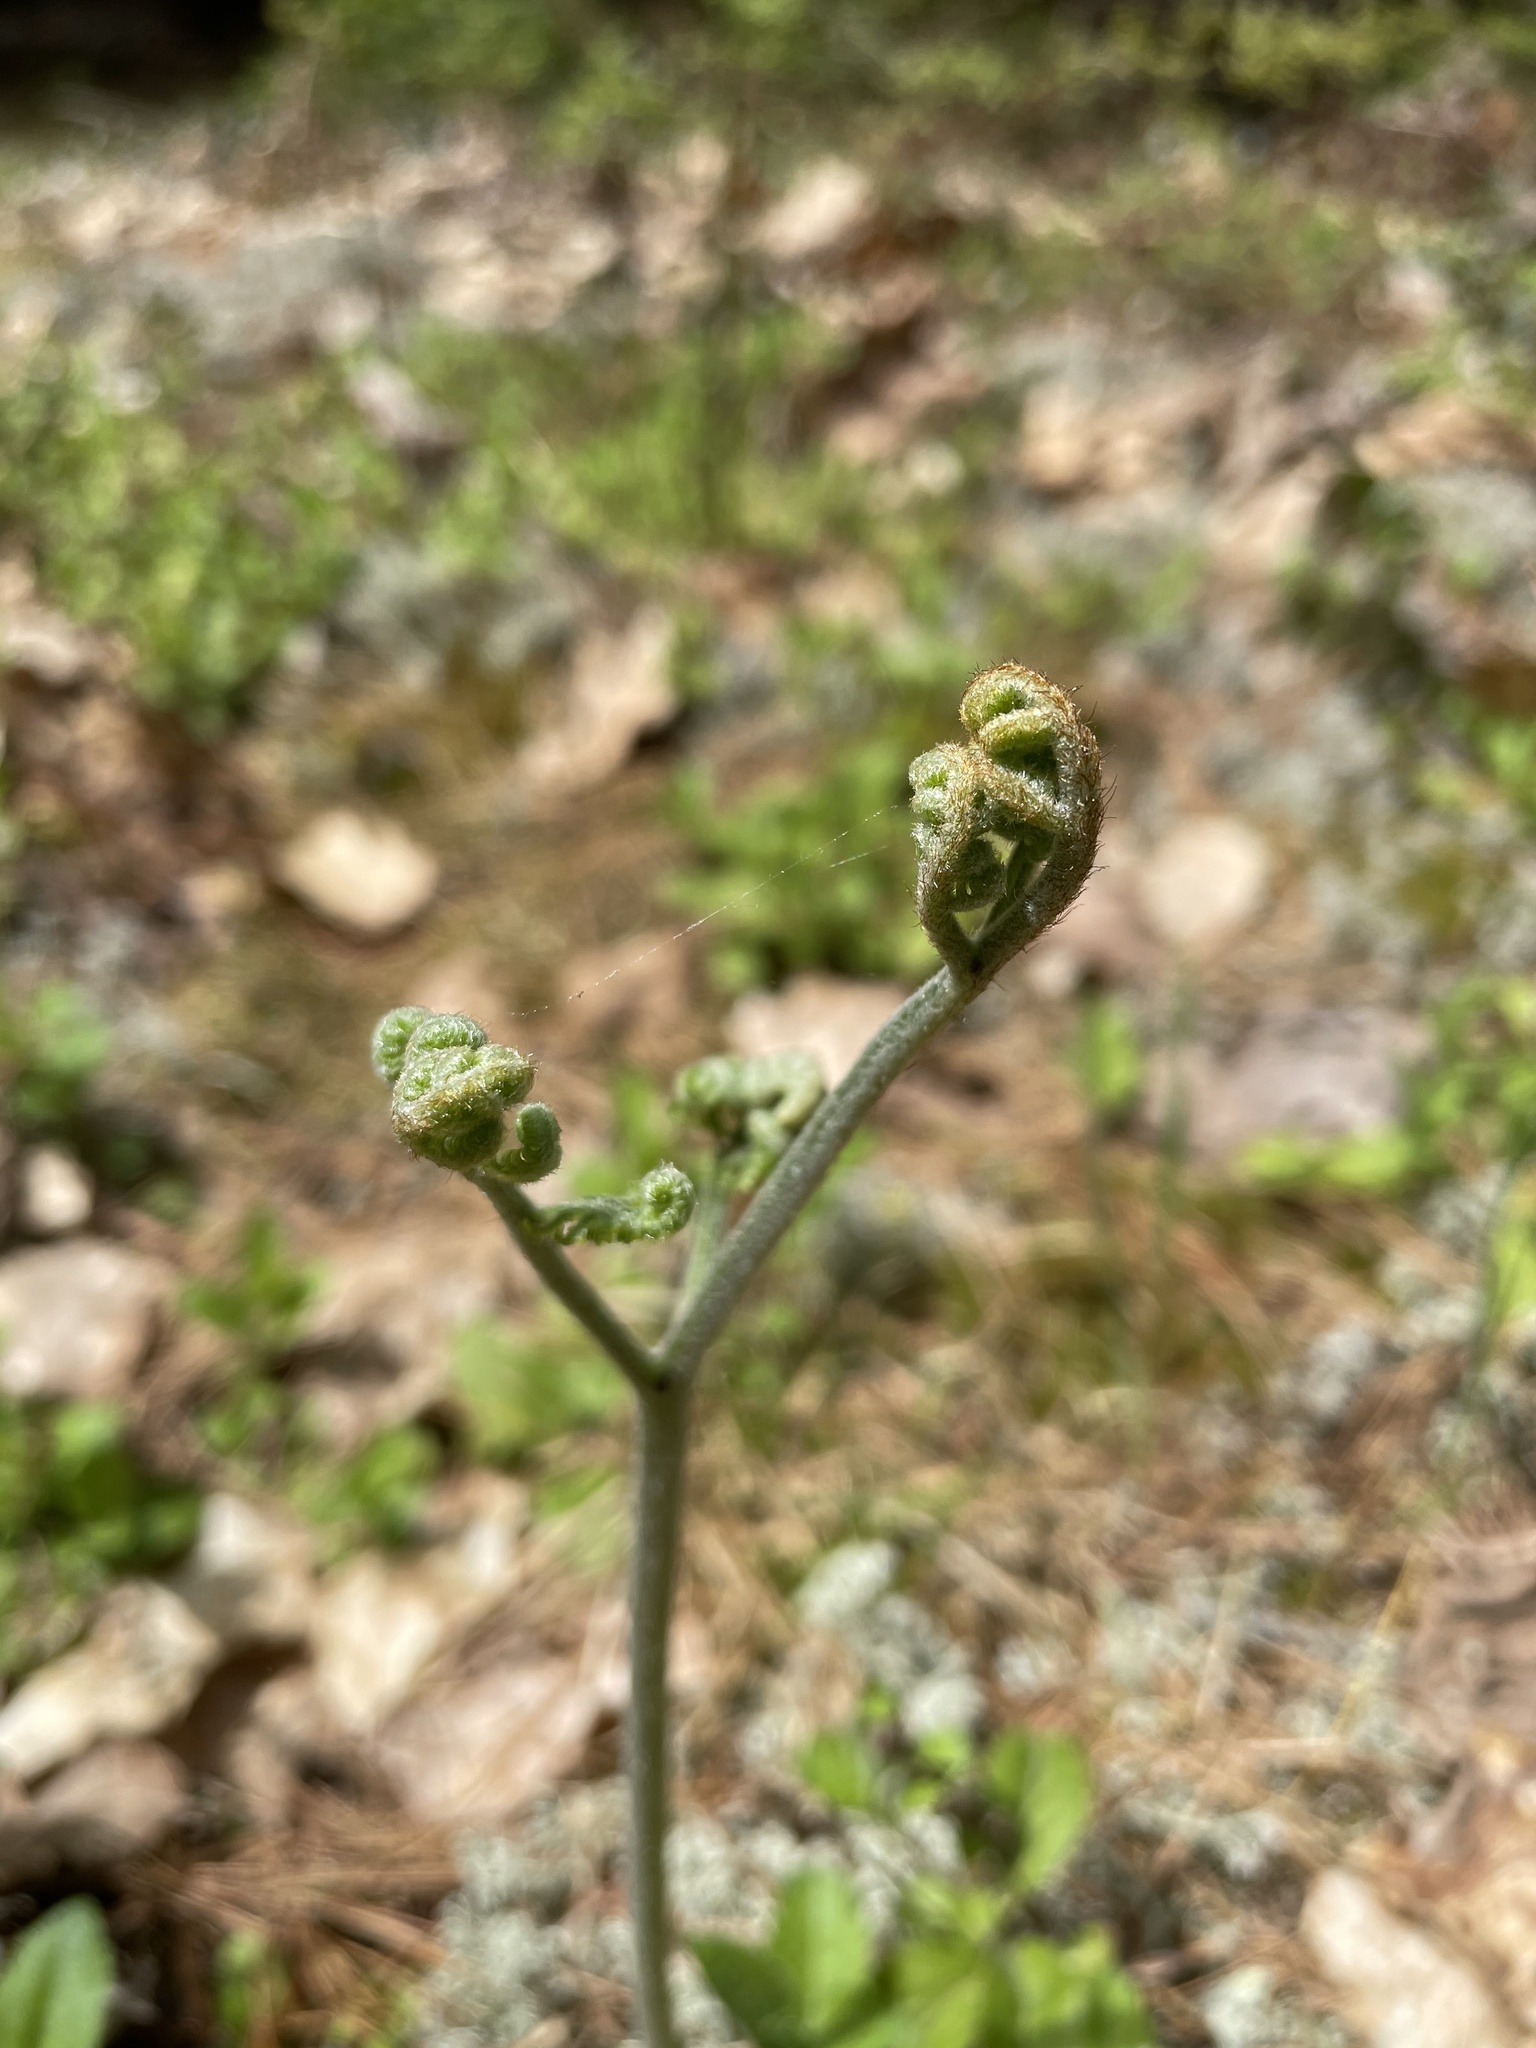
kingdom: Plantae
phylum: Tracheophyta
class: Polypodiopsida
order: Polypodiales
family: Dennstaedtiaceae
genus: Pteridium
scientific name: Pteridium aquilinum
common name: Bracken
